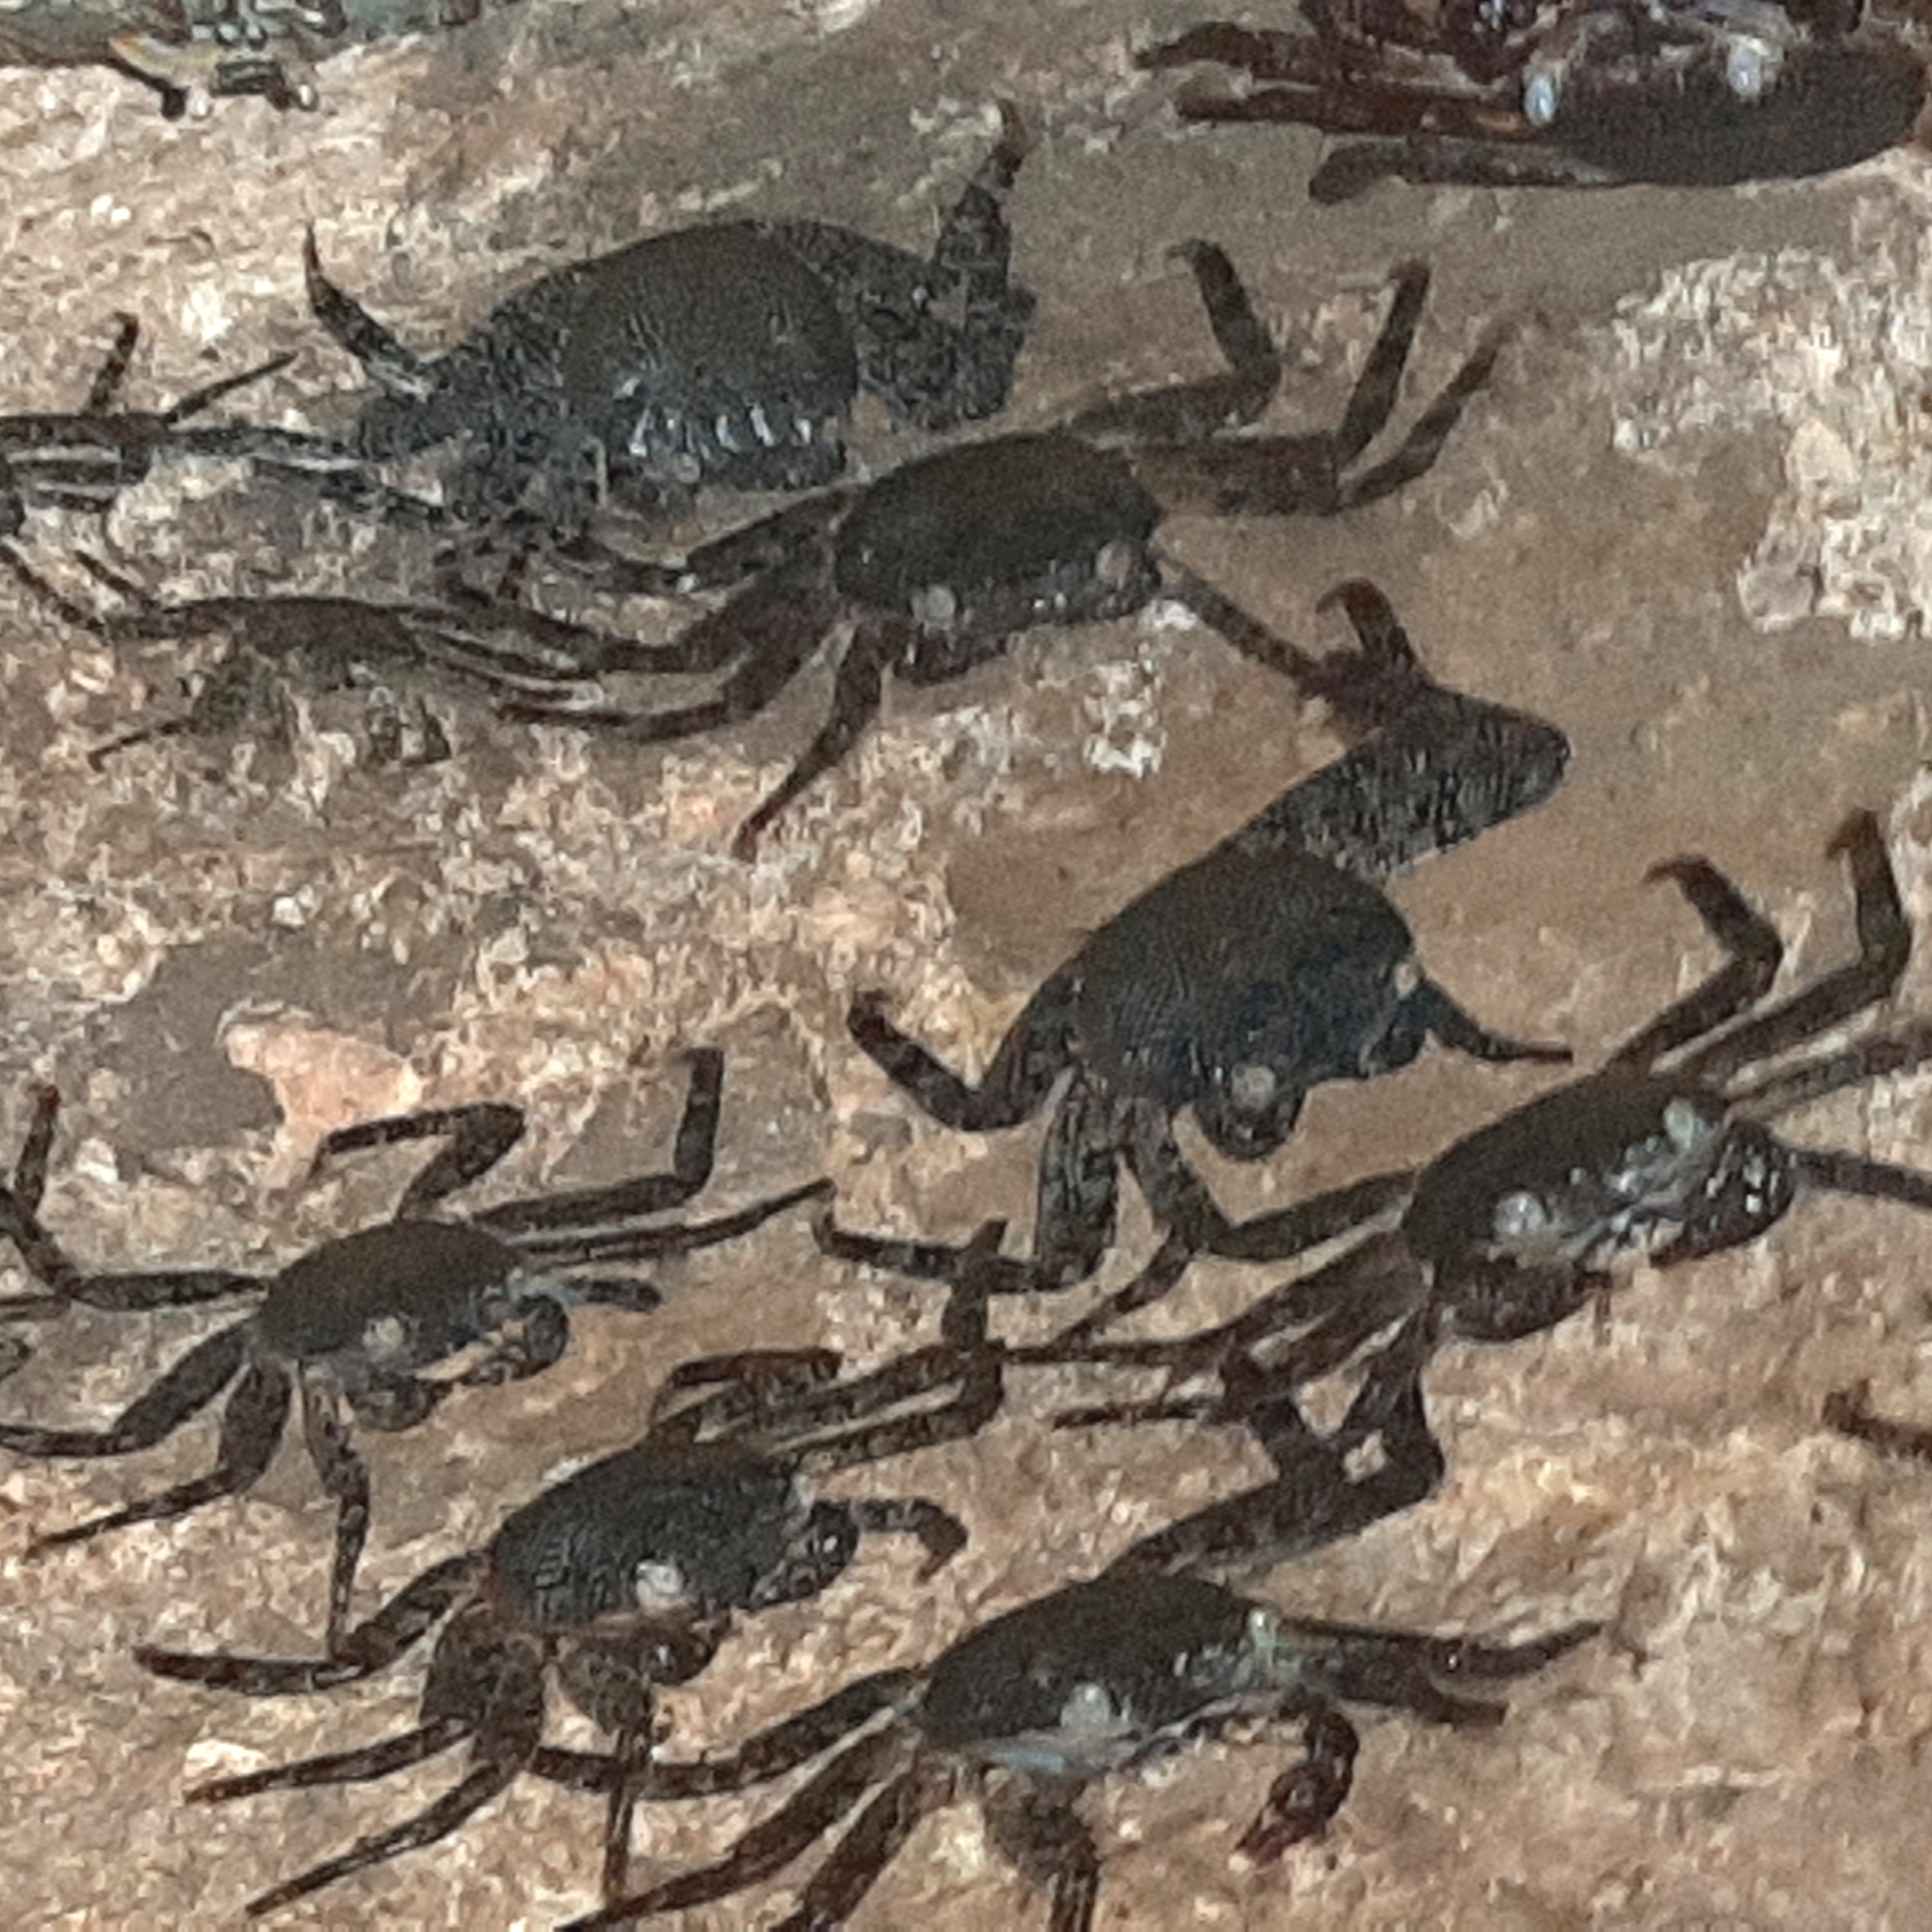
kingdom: Animalia
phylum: Arthropoda
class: Malacostraca
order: Decapoda
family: Grapsidae
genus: Grapsus
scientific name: Grapsus grapsus
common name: Sally lightfoot
